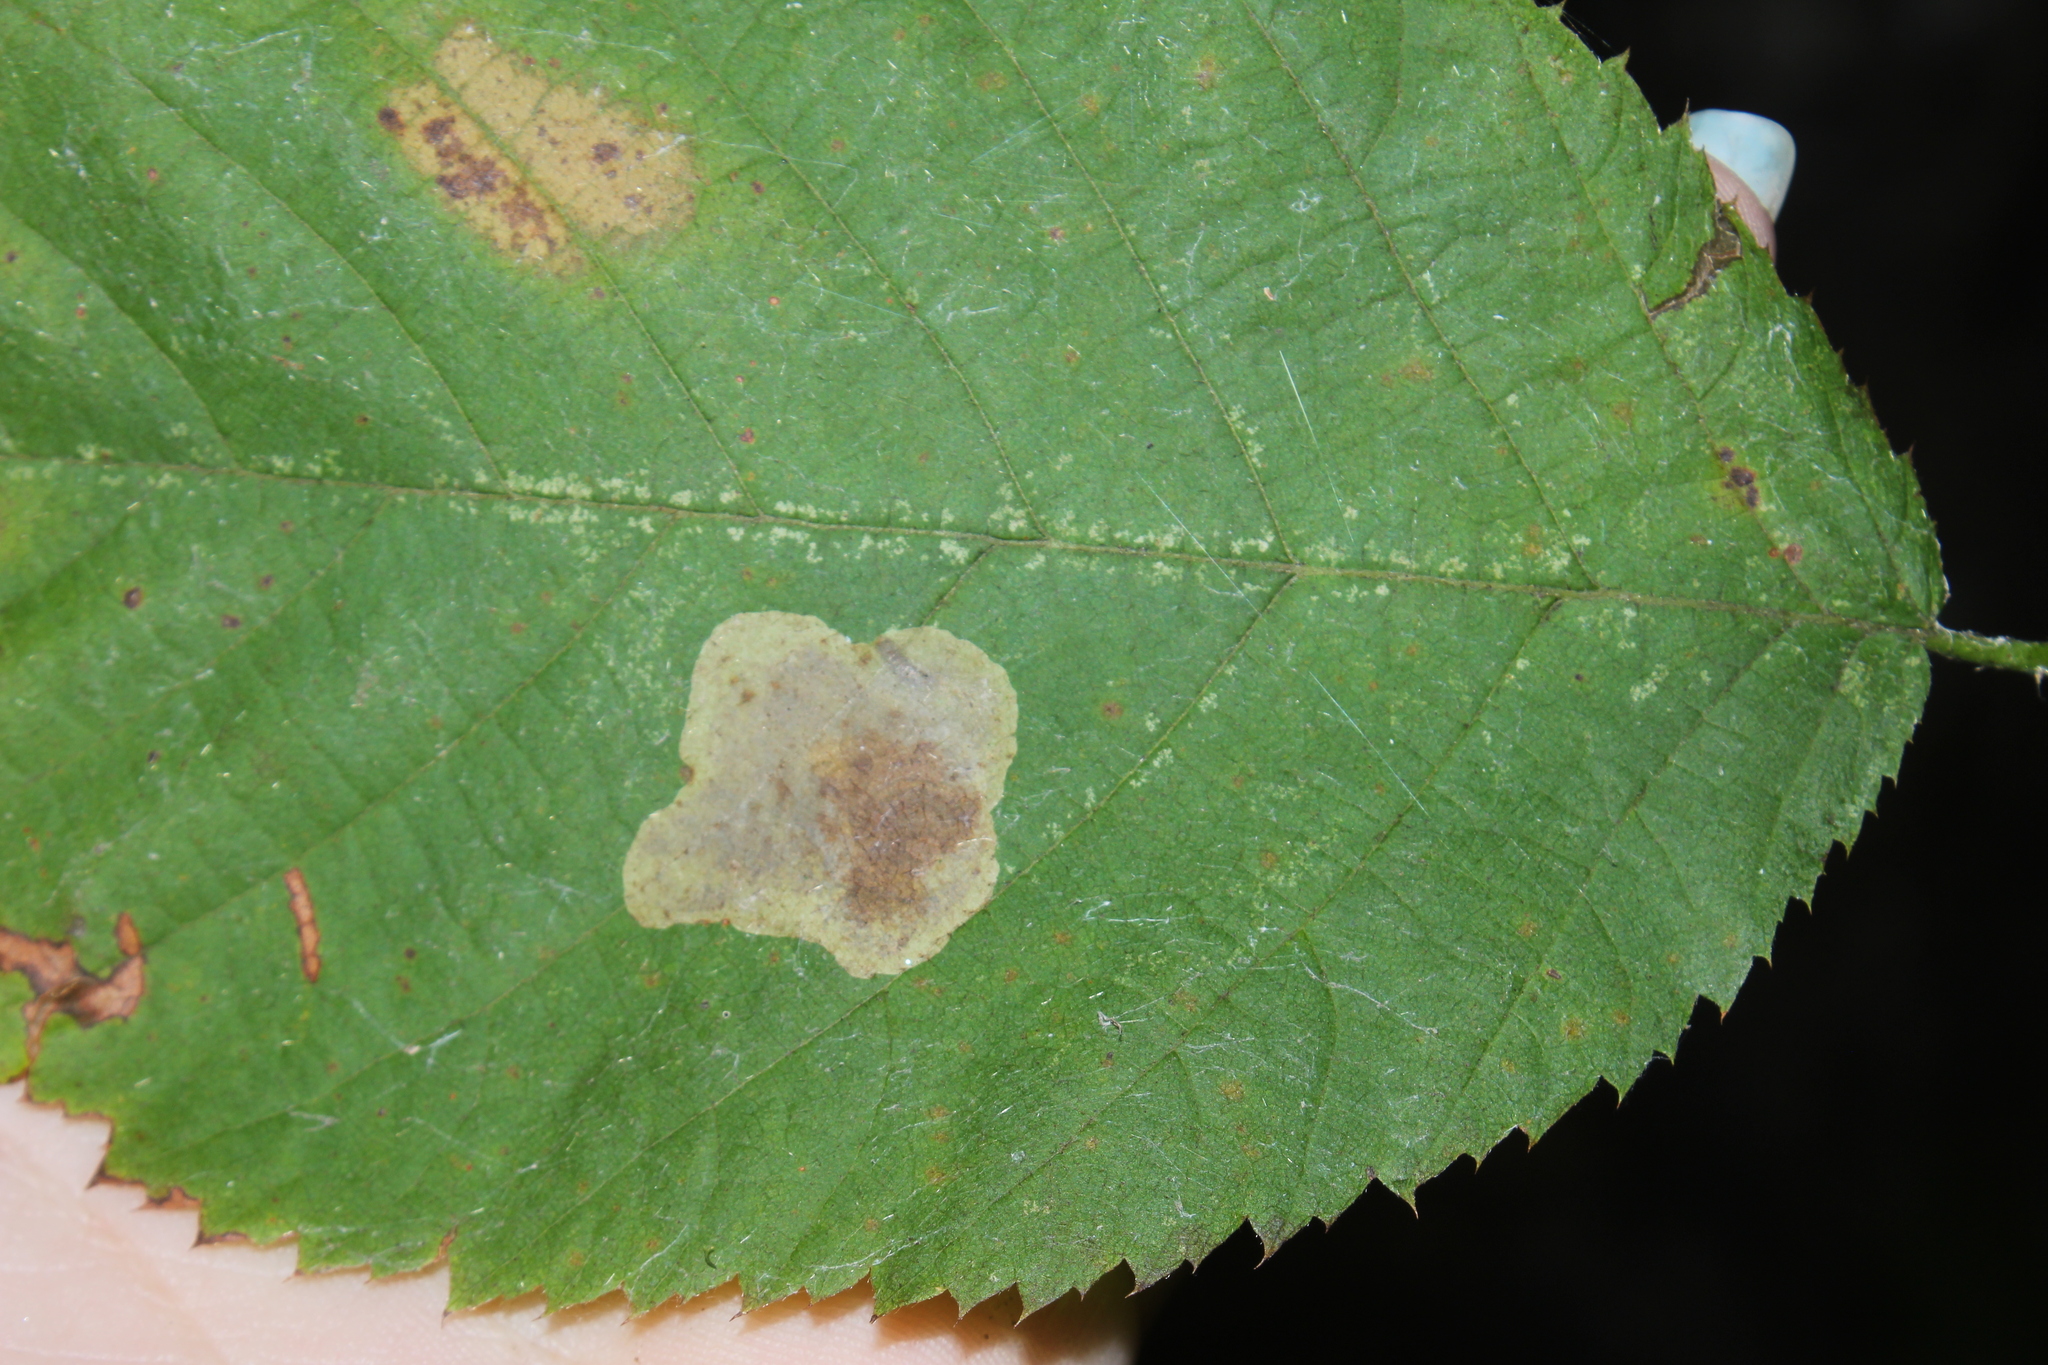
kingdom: Animalia
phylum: Arthropoda
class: Insecta
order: Lepidoptera
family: Gracillariidae
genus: Cameraria
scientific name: Cameraria
